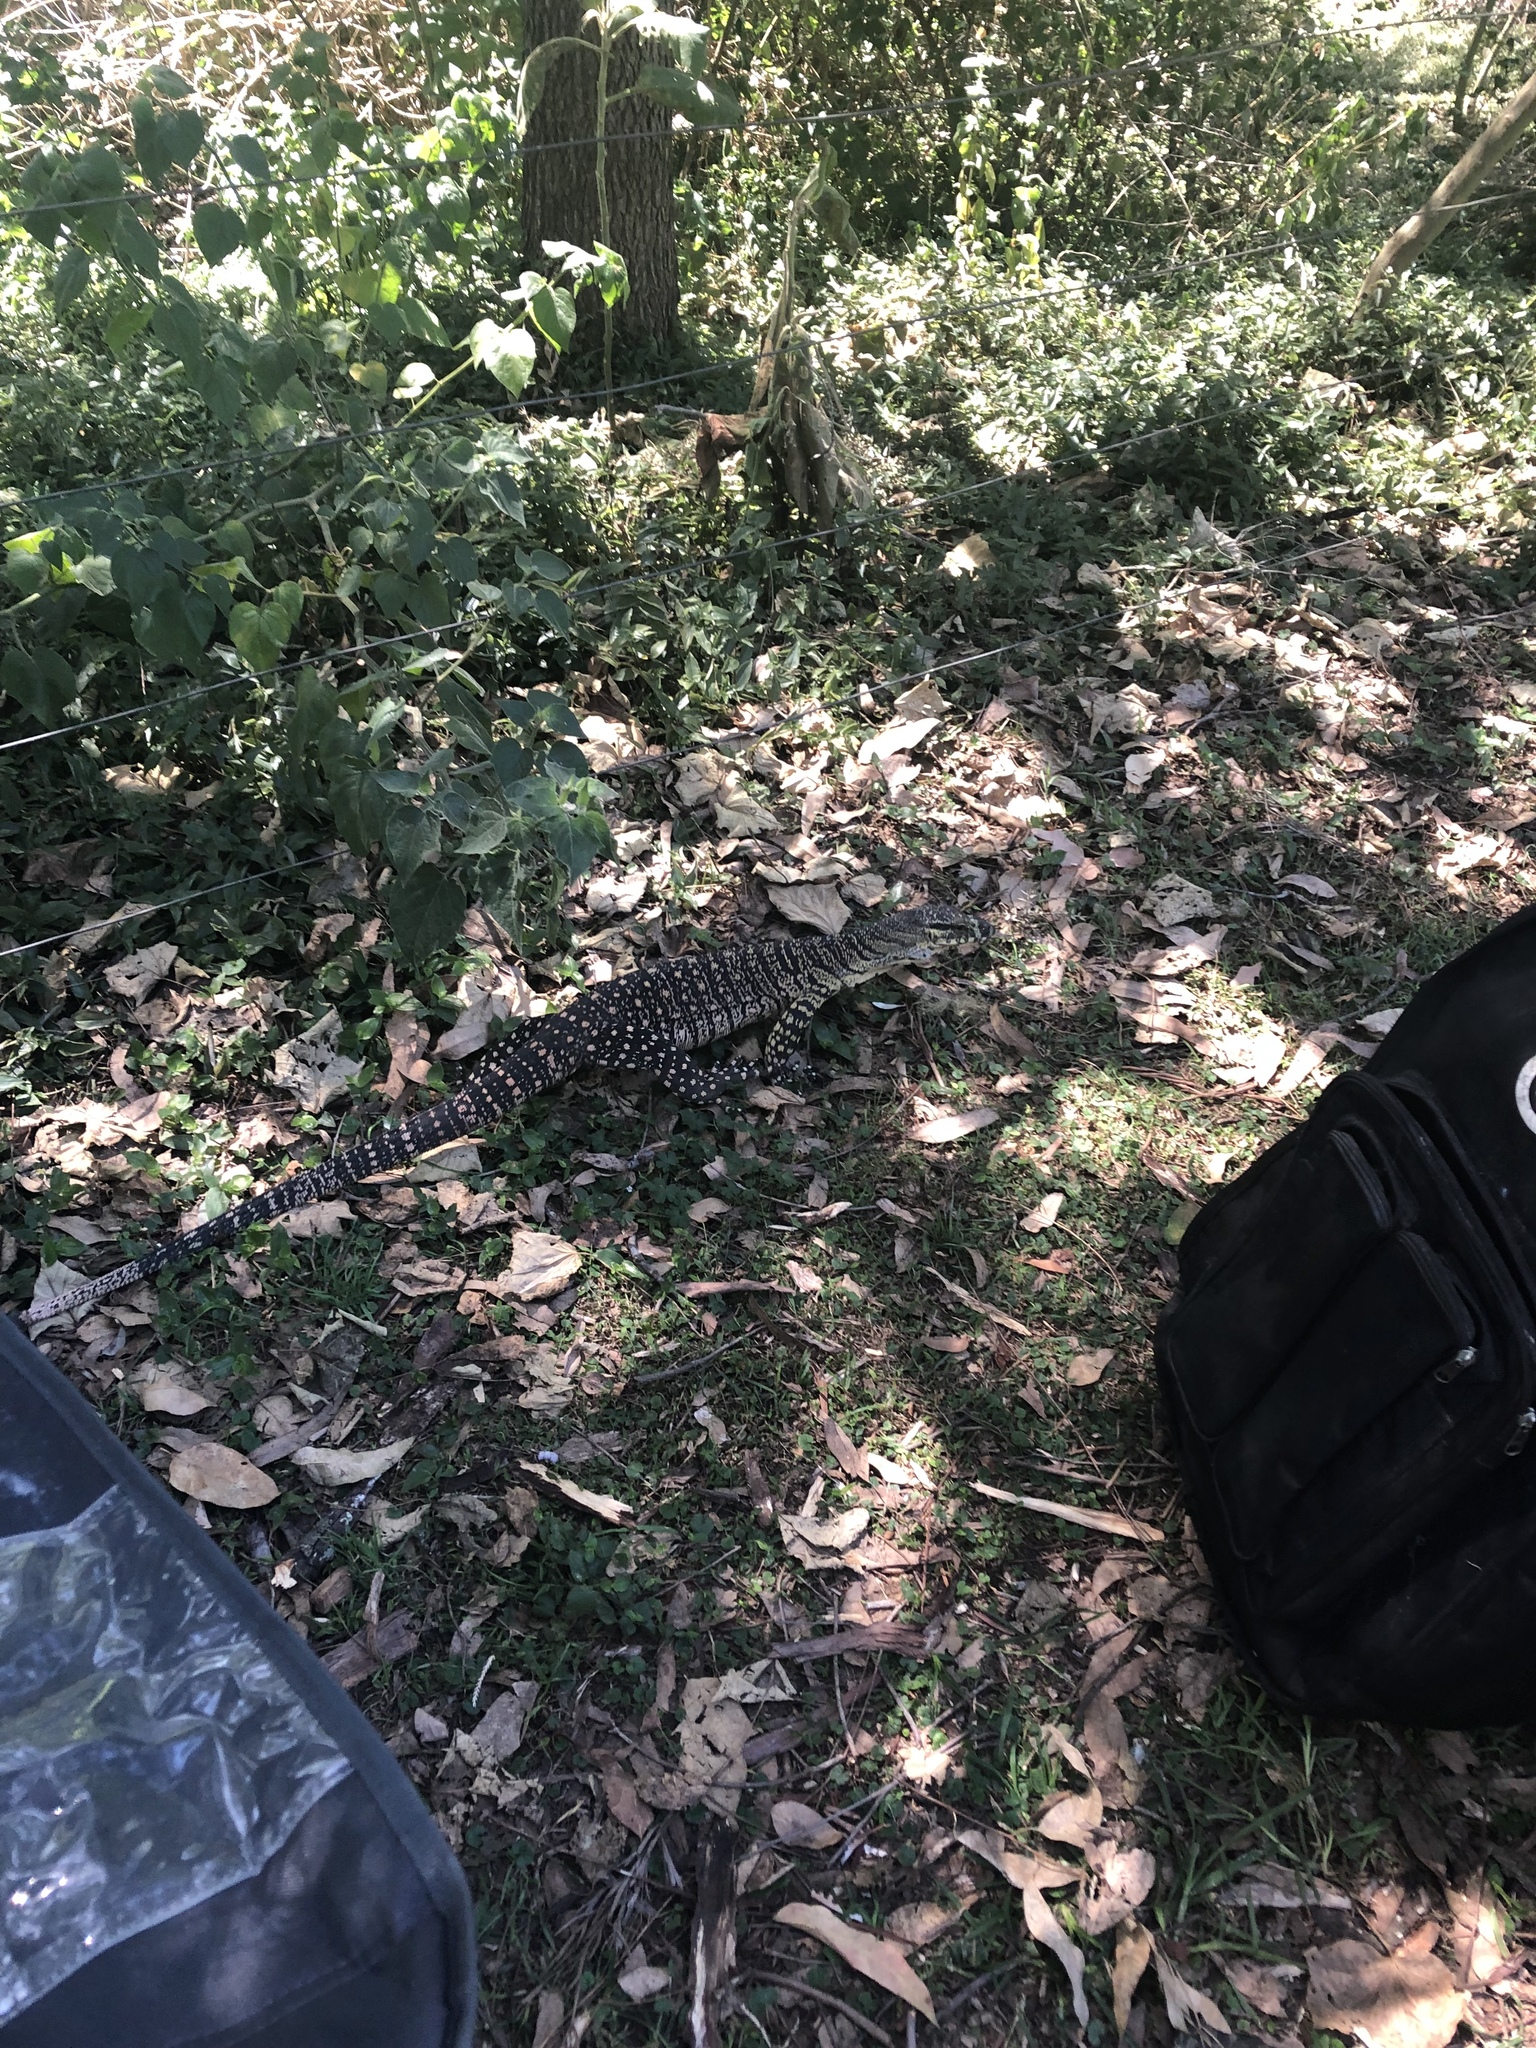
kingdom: Animalia
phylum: Chordata
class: Squamata
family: Varanidae
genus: Varanus
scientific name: Varanus varius
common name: Lace monitor
